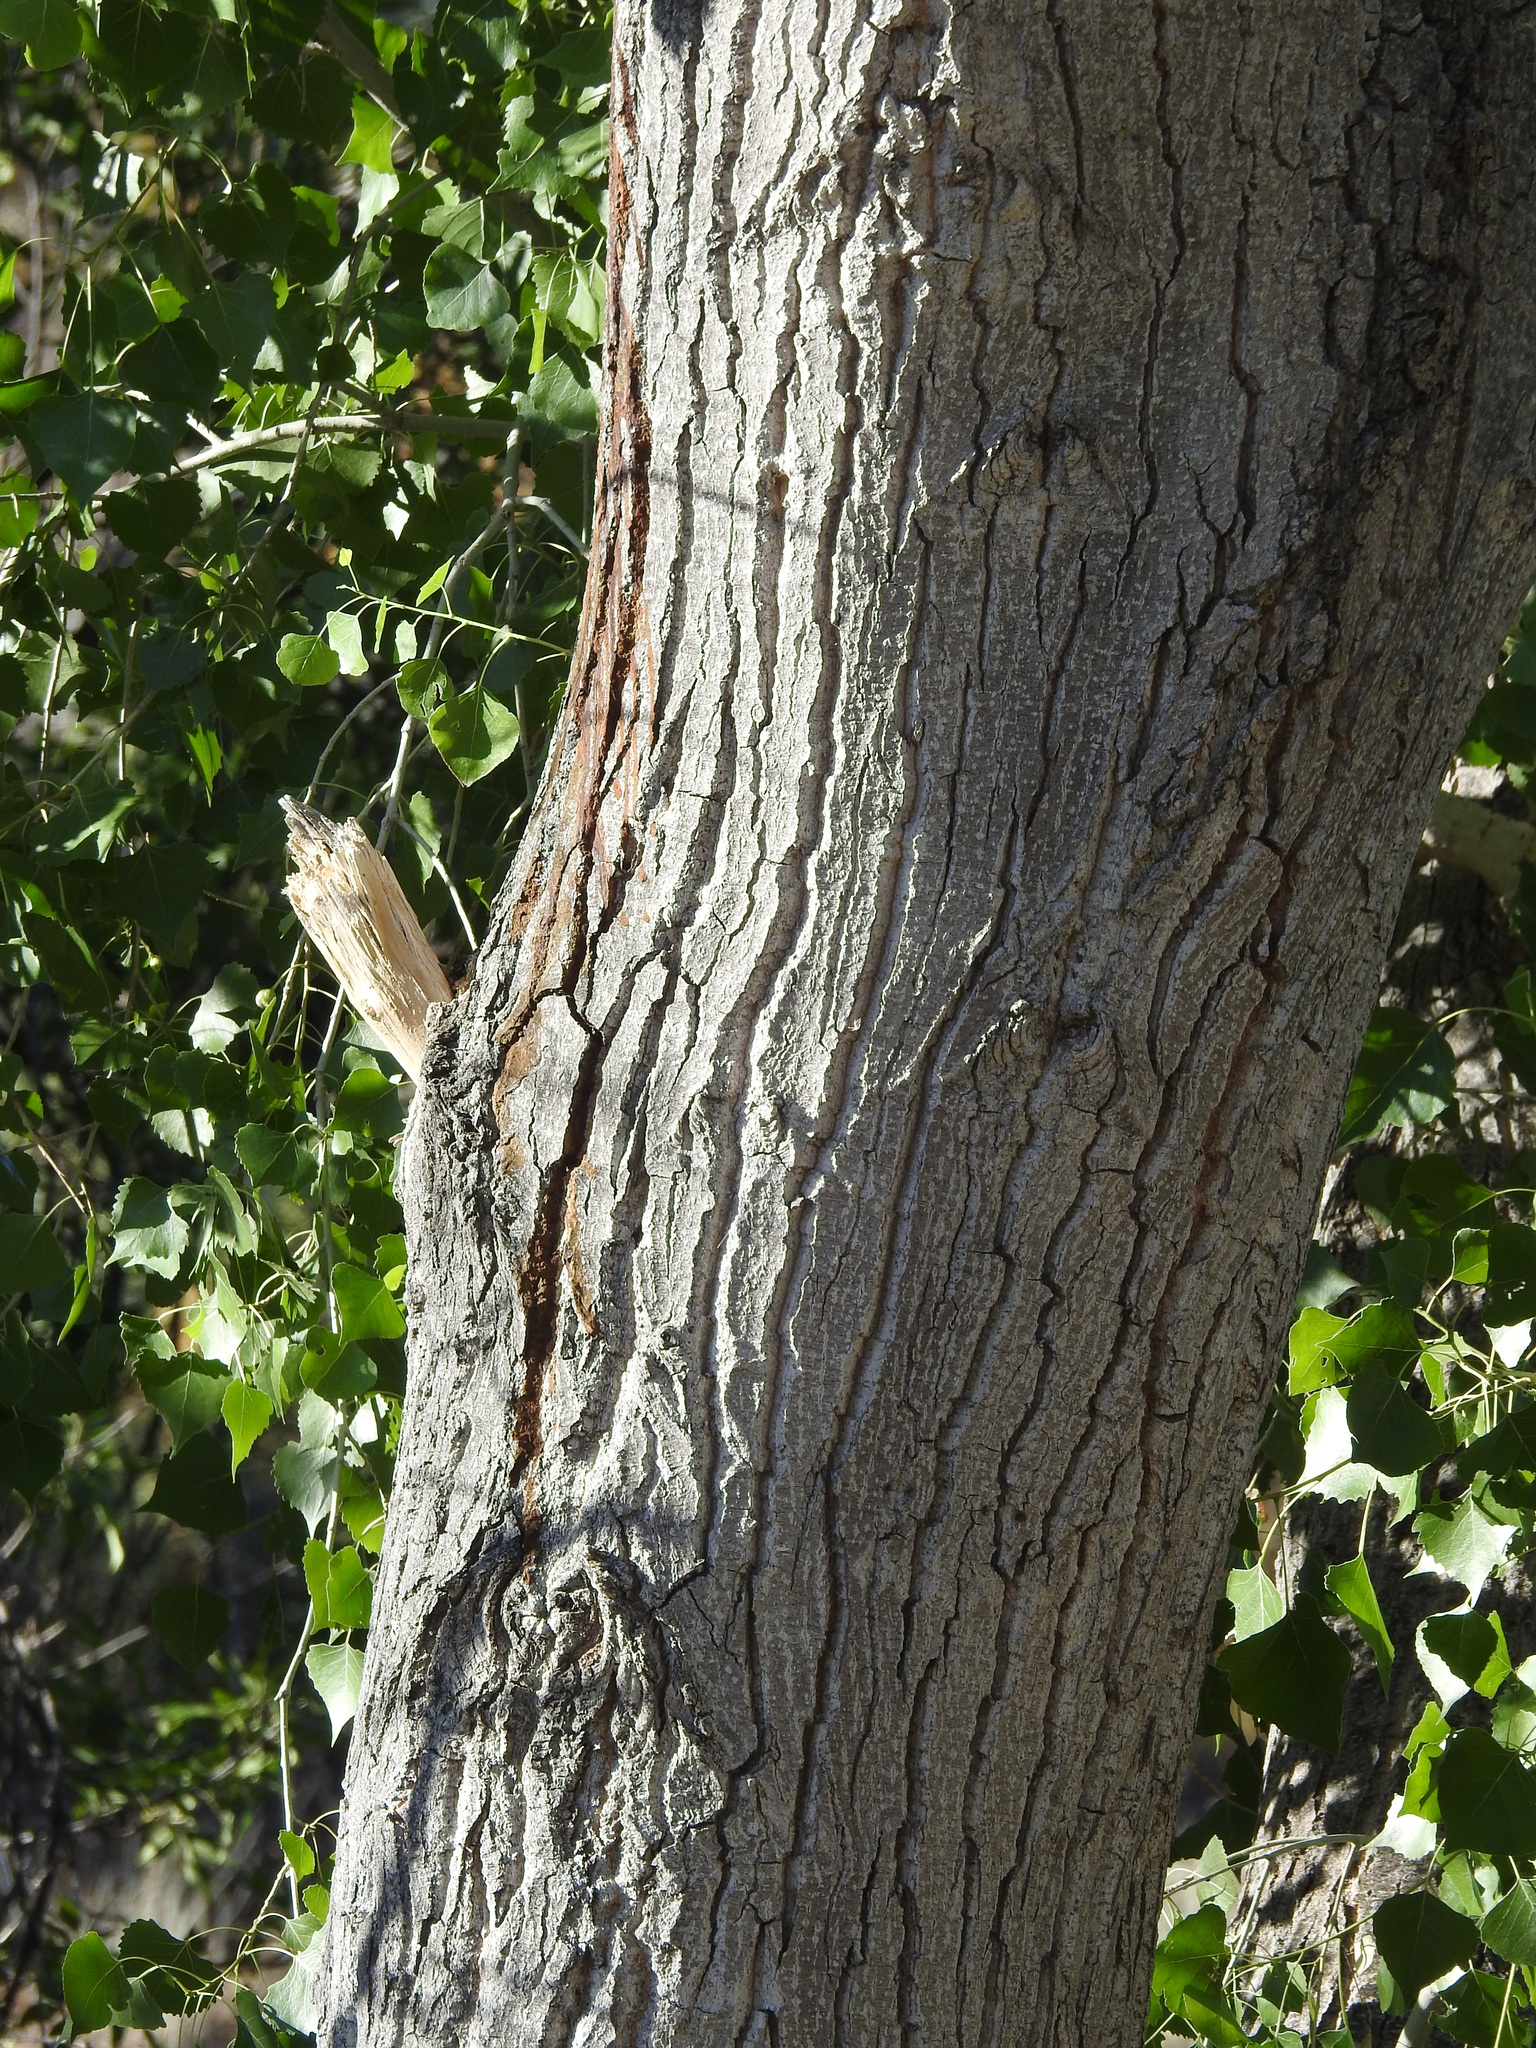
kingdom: Plantae
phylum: Tracheophyta
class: Magnoliopsida
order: Malpighiales
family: Salicaceae
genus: Populus
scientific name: Populus fremontii
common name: Fremont's cottonwood
